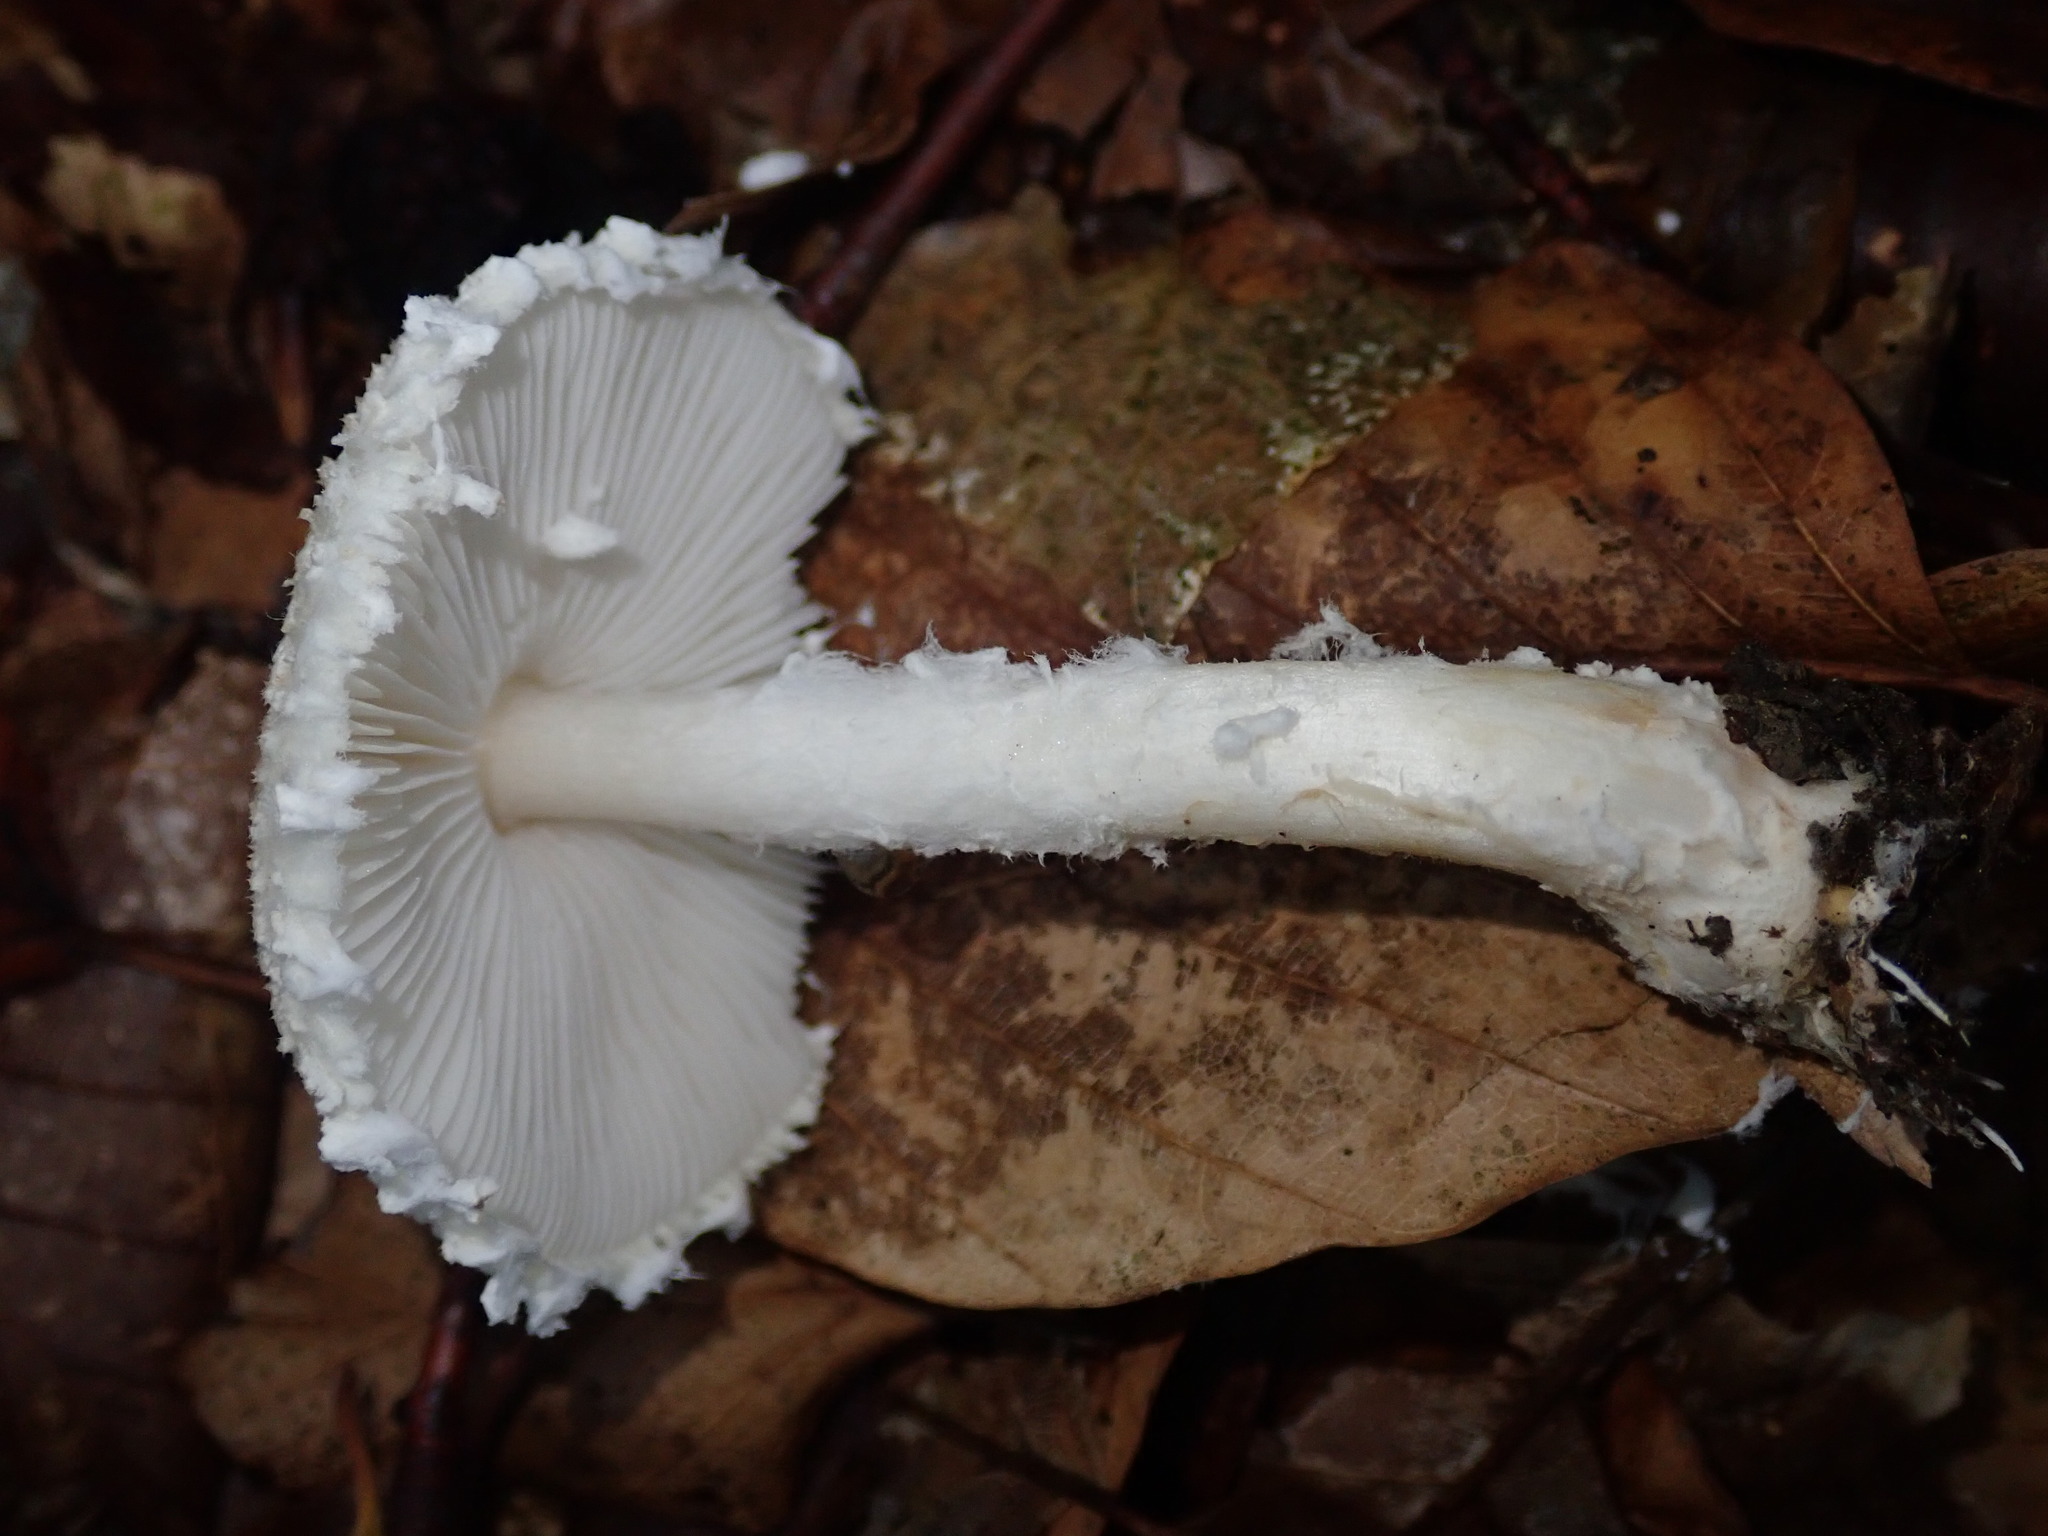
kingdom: Fungi
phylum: Basidiomycota
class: Agaricomycetes
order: Agaricales
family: Agaricaceae
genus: Lepiota
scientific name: Lepiota clypeolaria
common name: Shield dapperling
